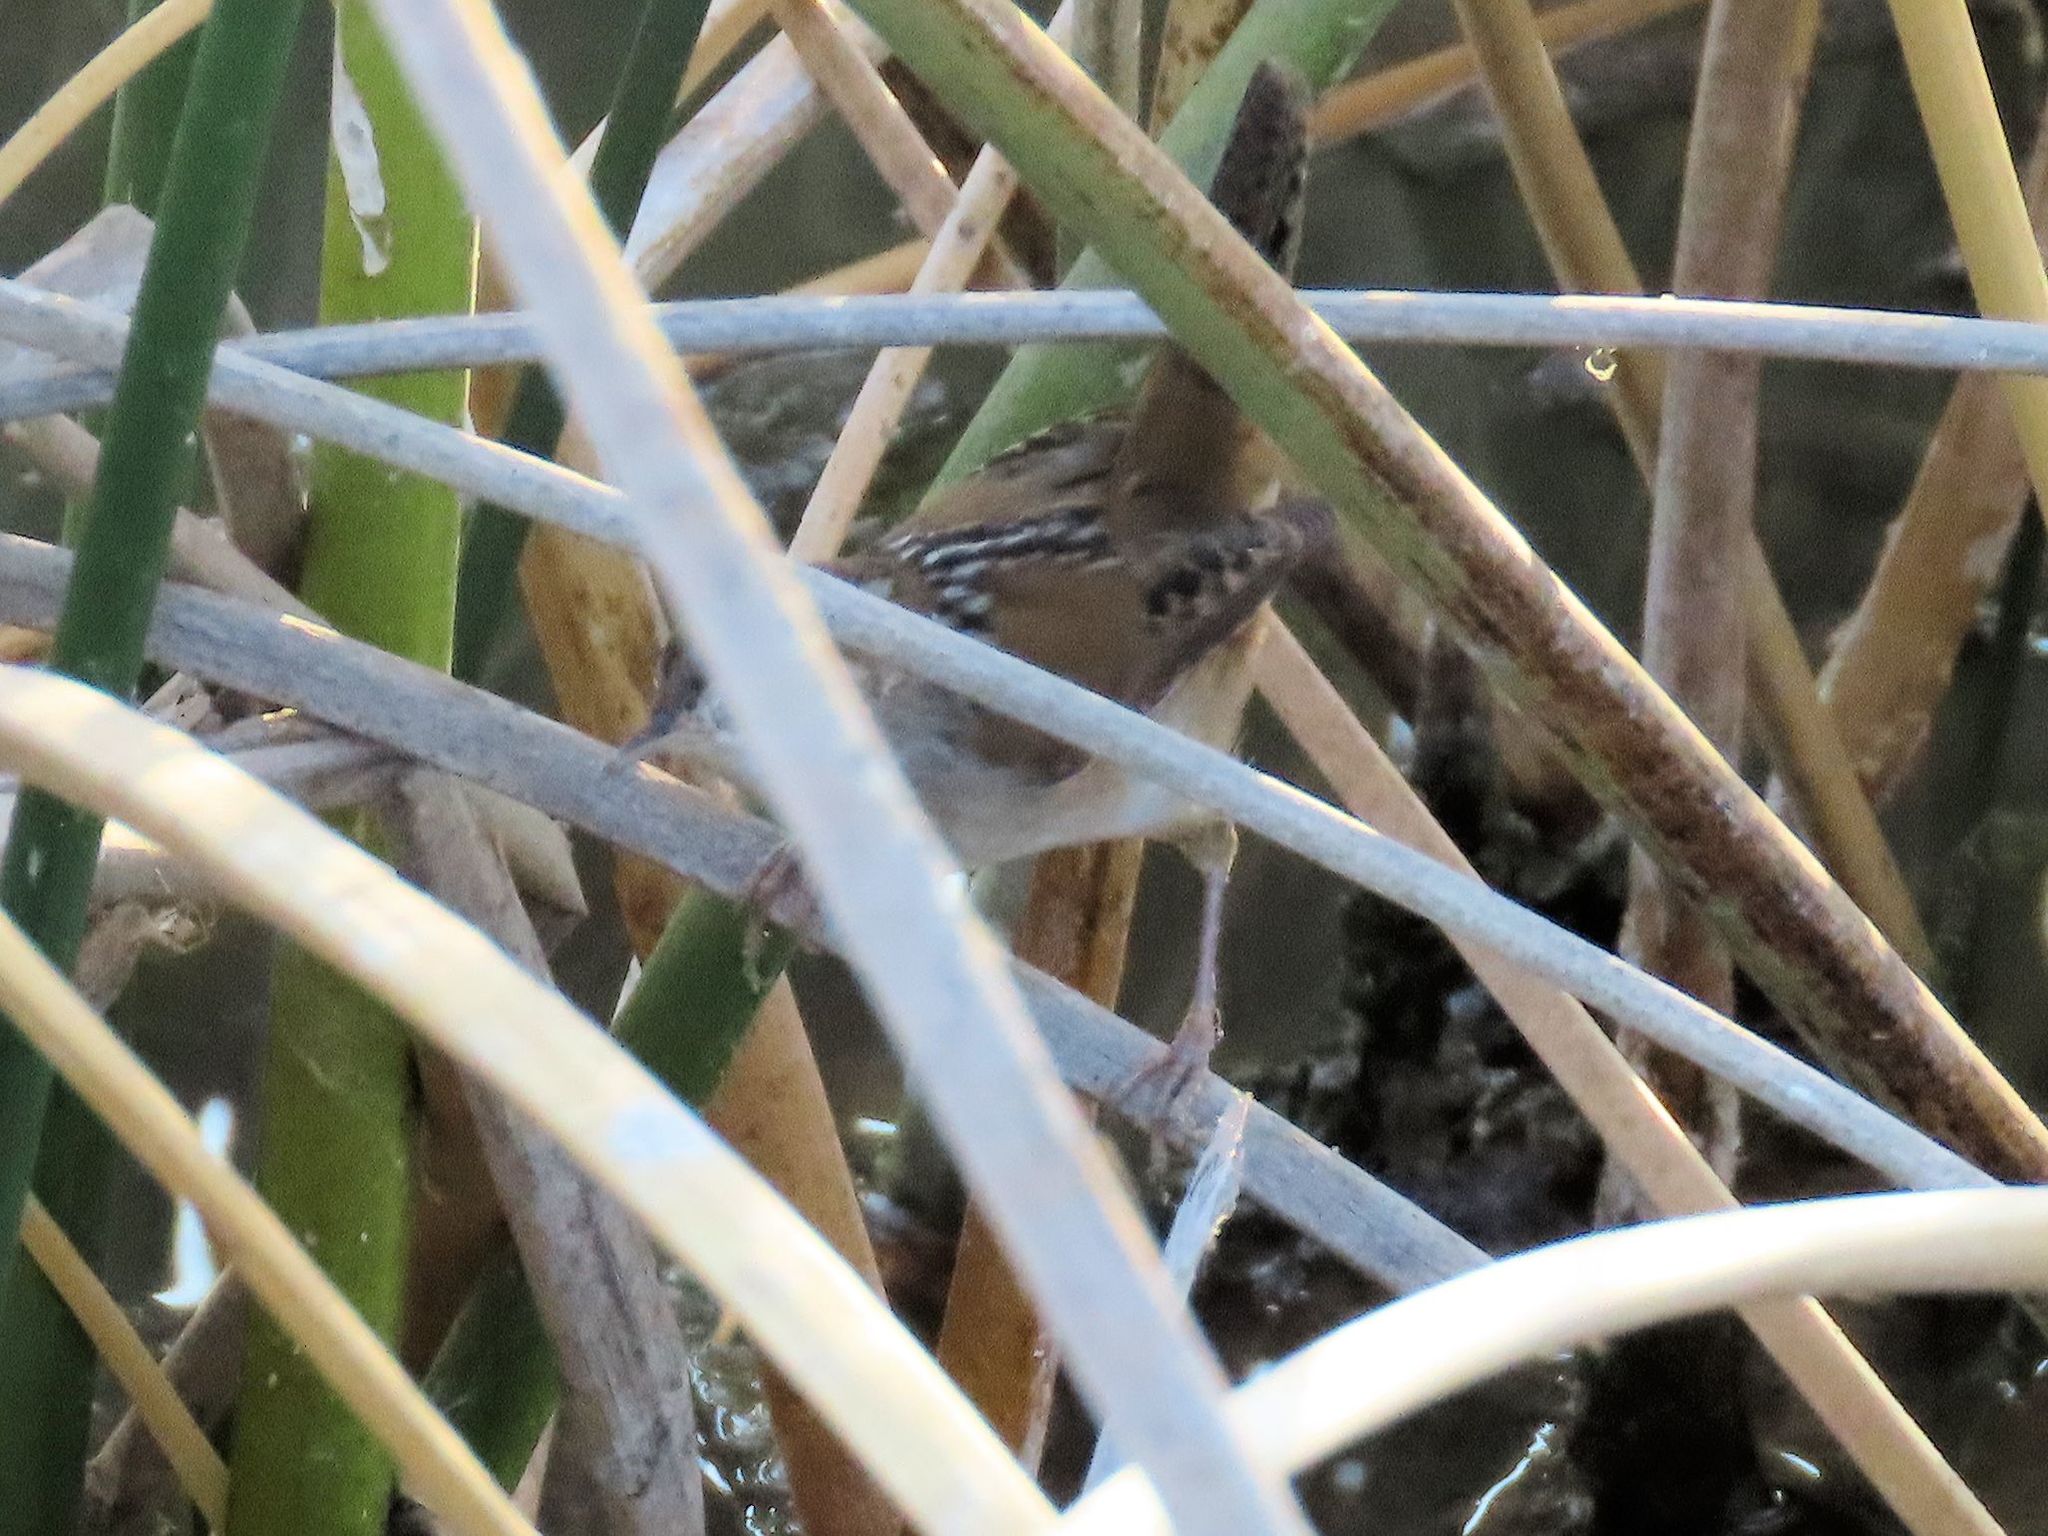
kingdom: Animalia
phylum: Chordata
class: Aves
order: Passeriformes
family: Troglodytidae
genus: Cistothorus
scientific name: Cistothorus palustris
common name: Marsh wren
